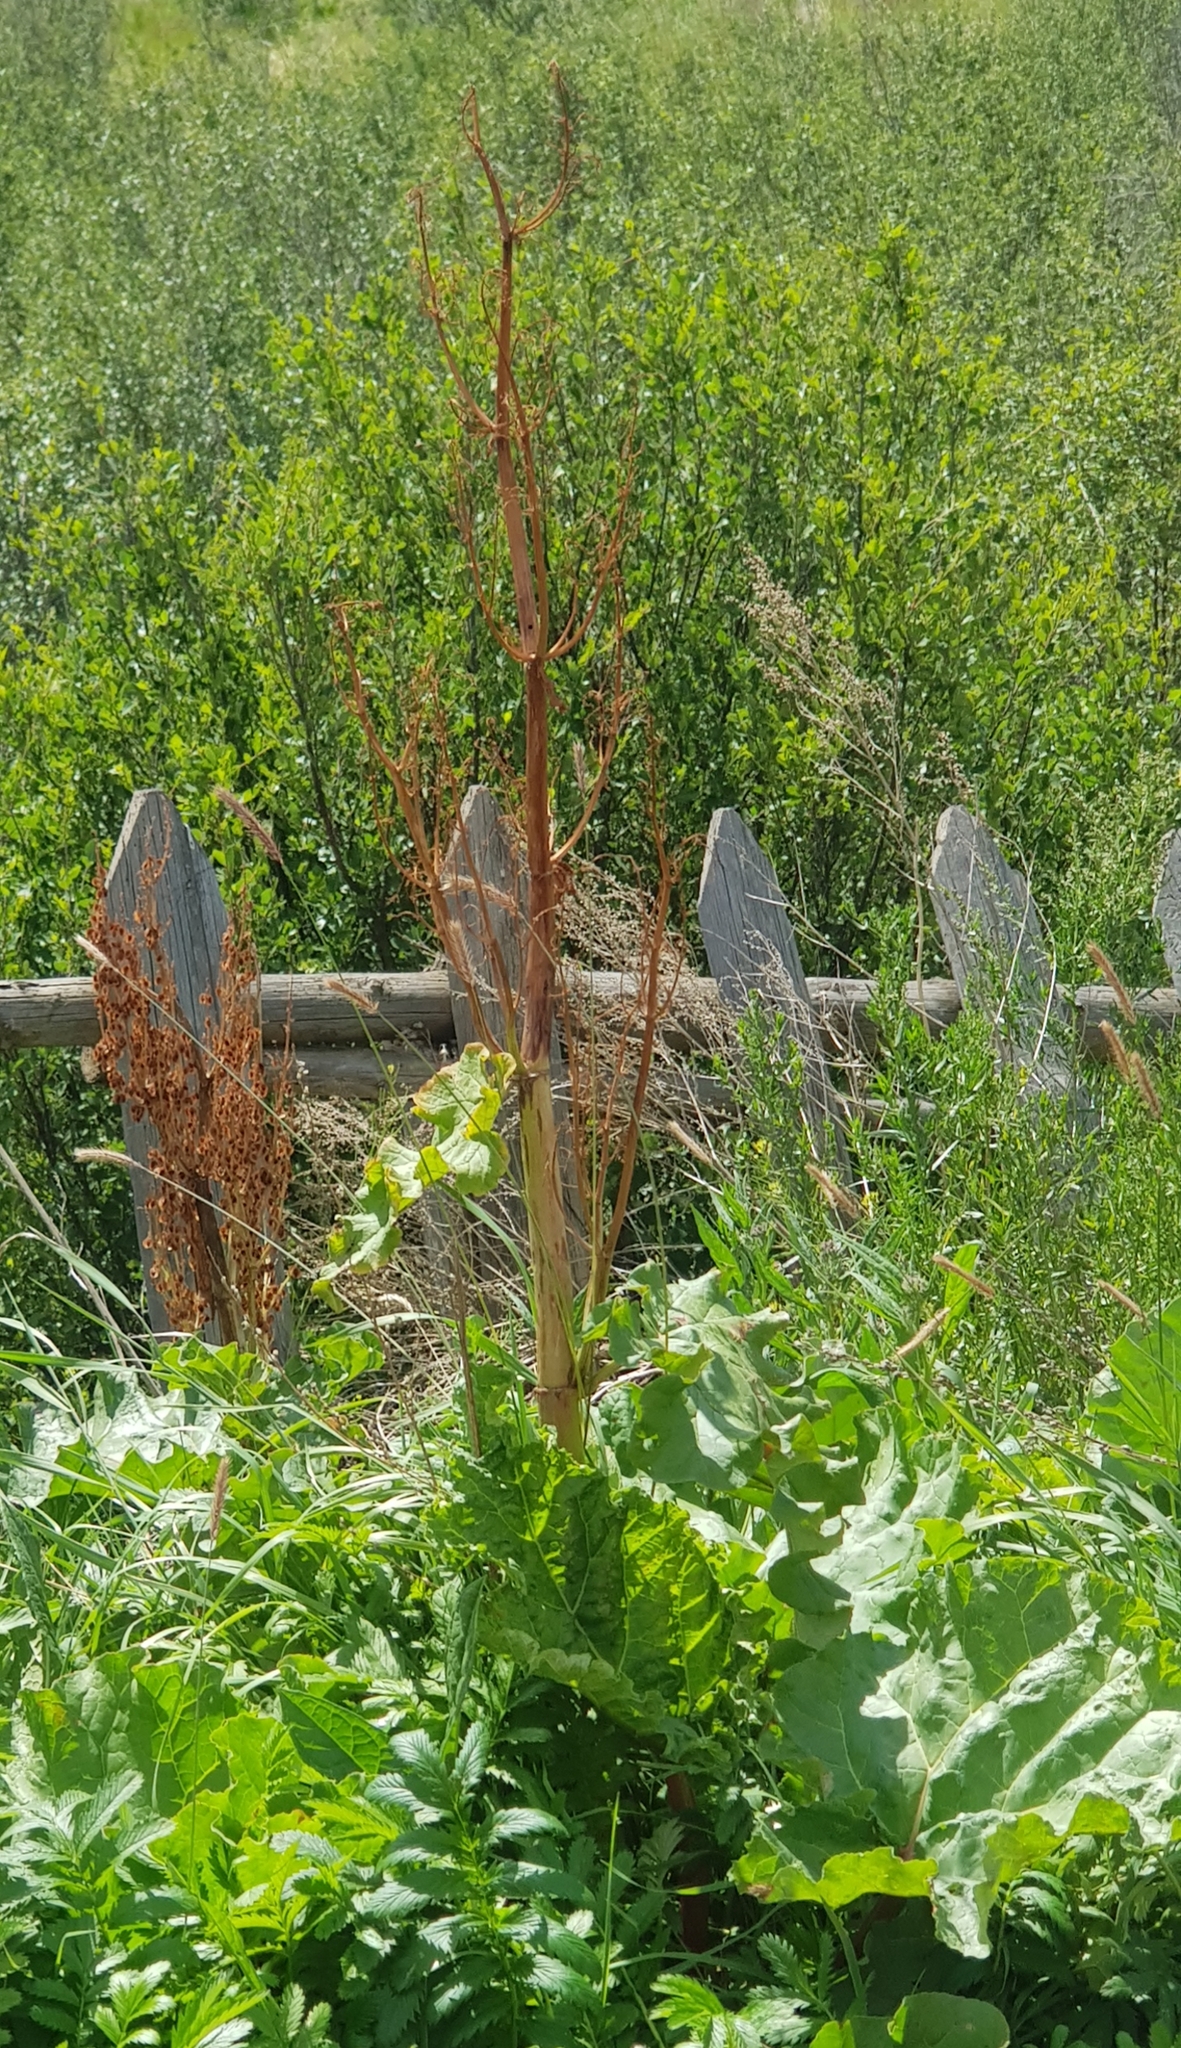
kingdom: Plantae
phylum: Tracheophyta
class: Magnoliopsida
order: Caryophyllales
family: Polygonaceae
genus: Rheum
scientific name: Rheum rhabarbarum
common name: Garden rhubarb
